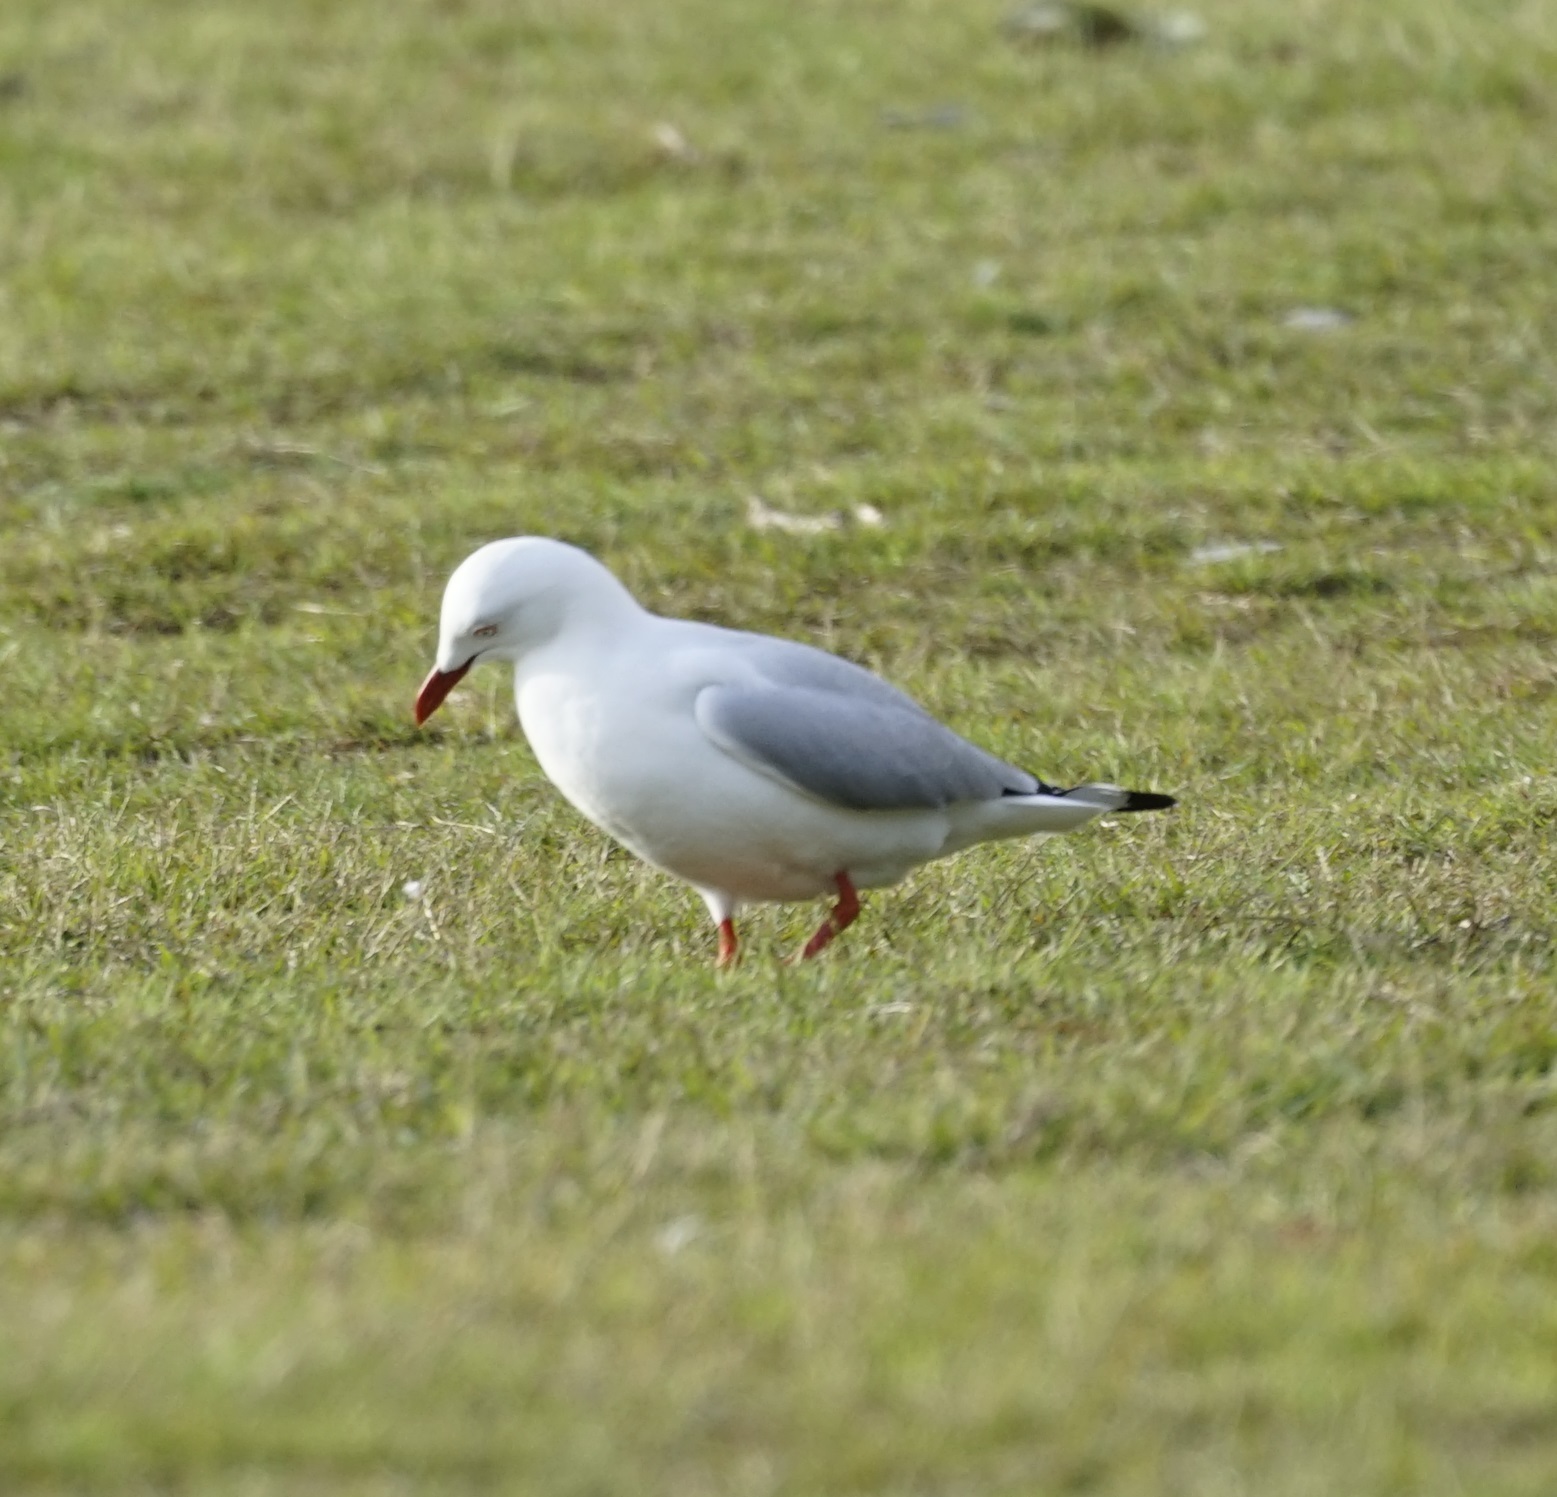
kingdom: Animalia
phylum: Chordata
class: Aves
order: Charadriiformes
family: Laridae
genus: Chroicocephalus
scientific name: Chroicocephalus novaehollandiae
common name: Silver gull
